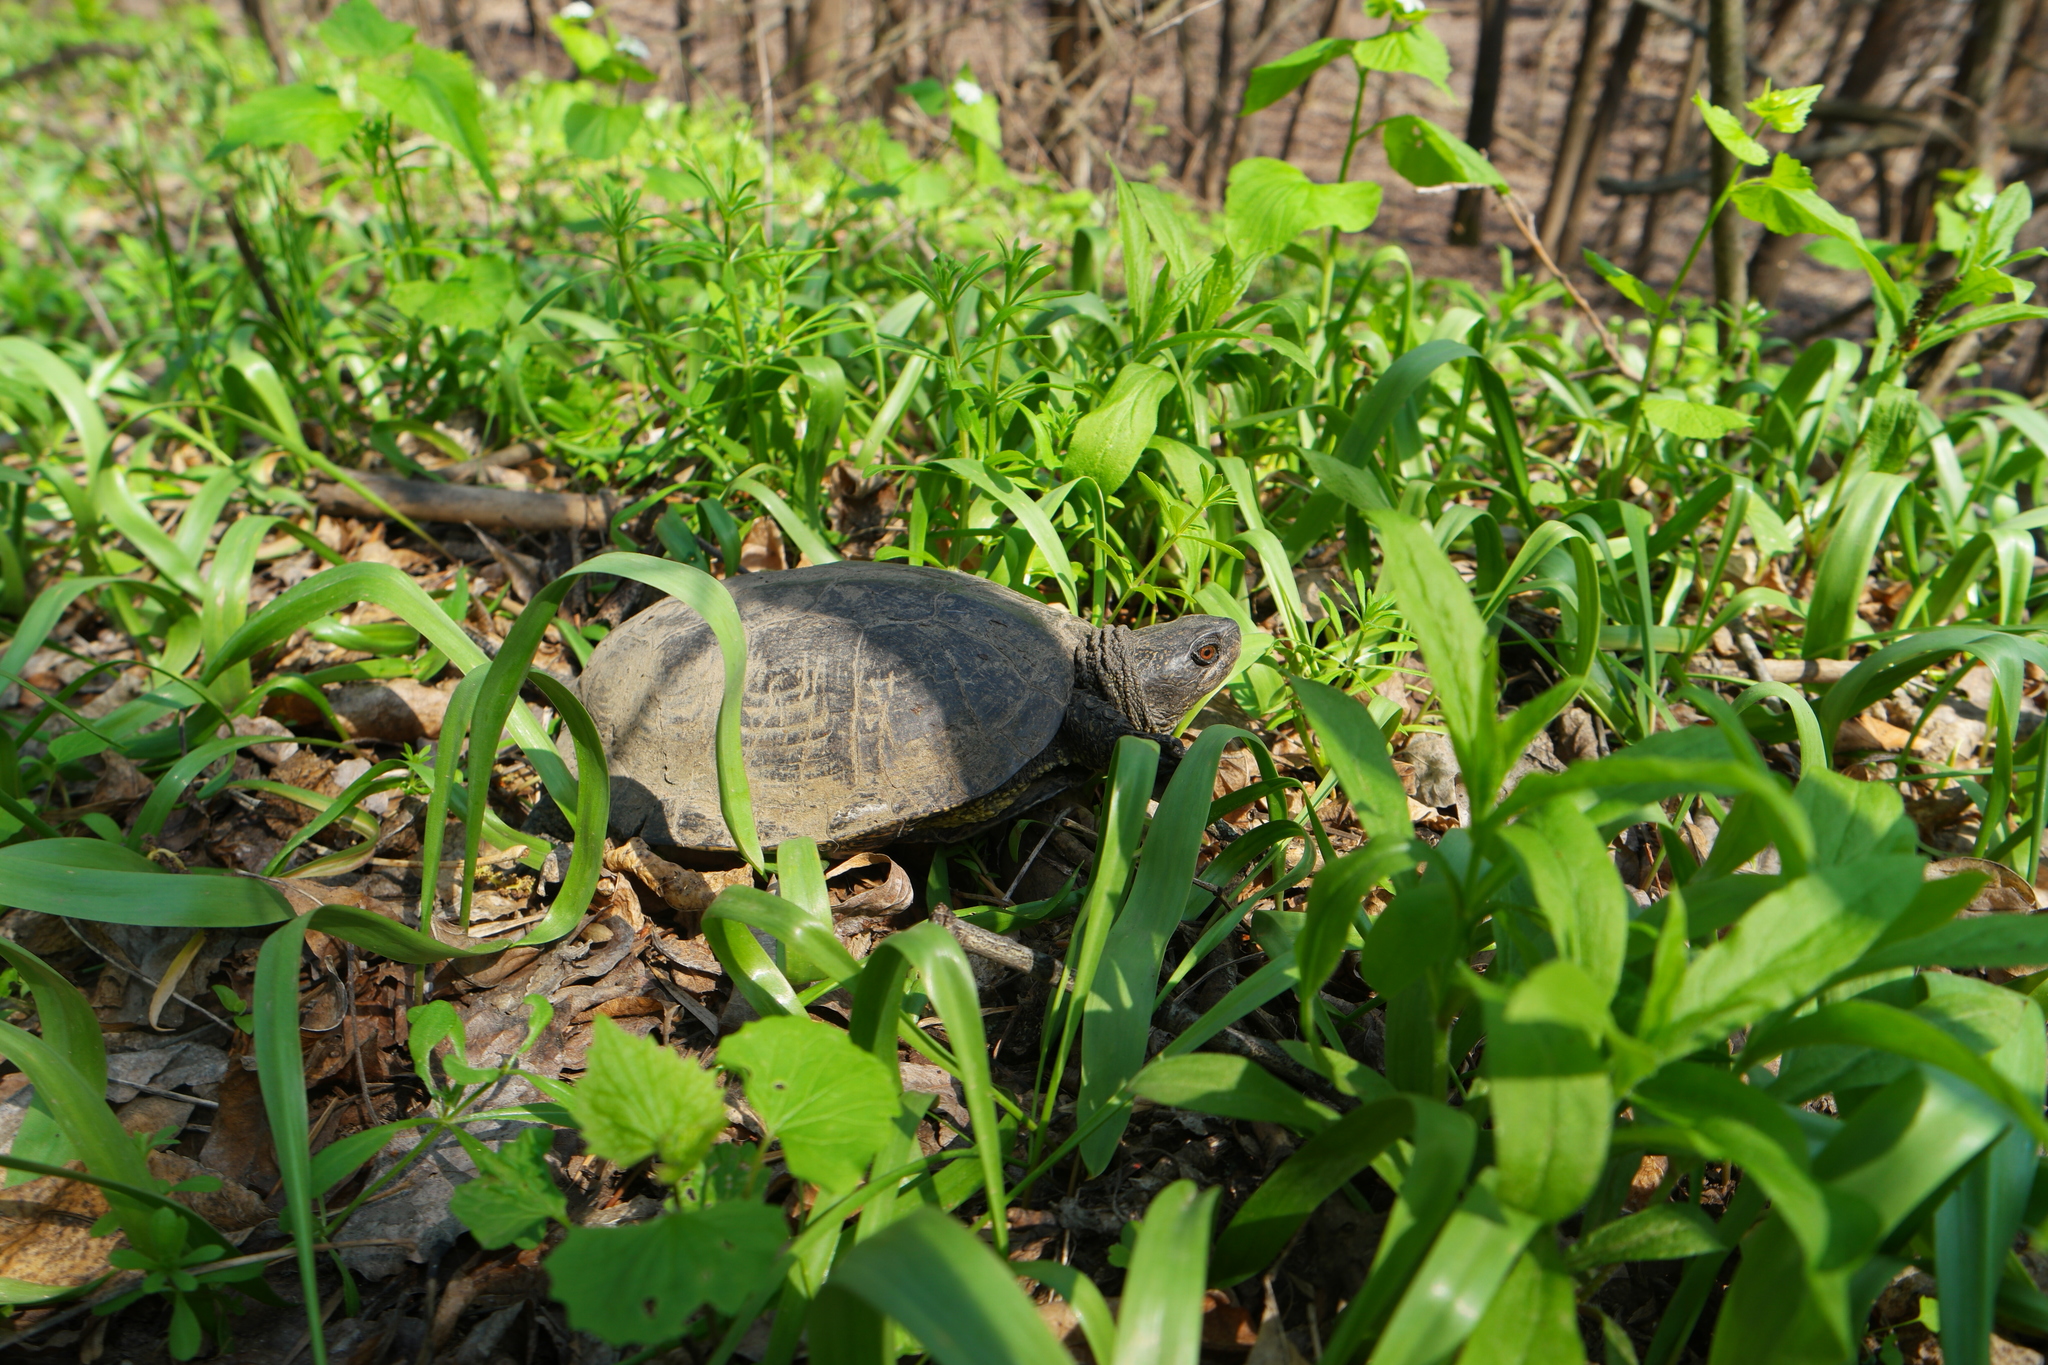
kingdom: Animalia
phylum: Chordata
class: Testudines
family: Emydidae
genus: Emys
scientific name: Emys orbicularis
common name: European pond turtle
